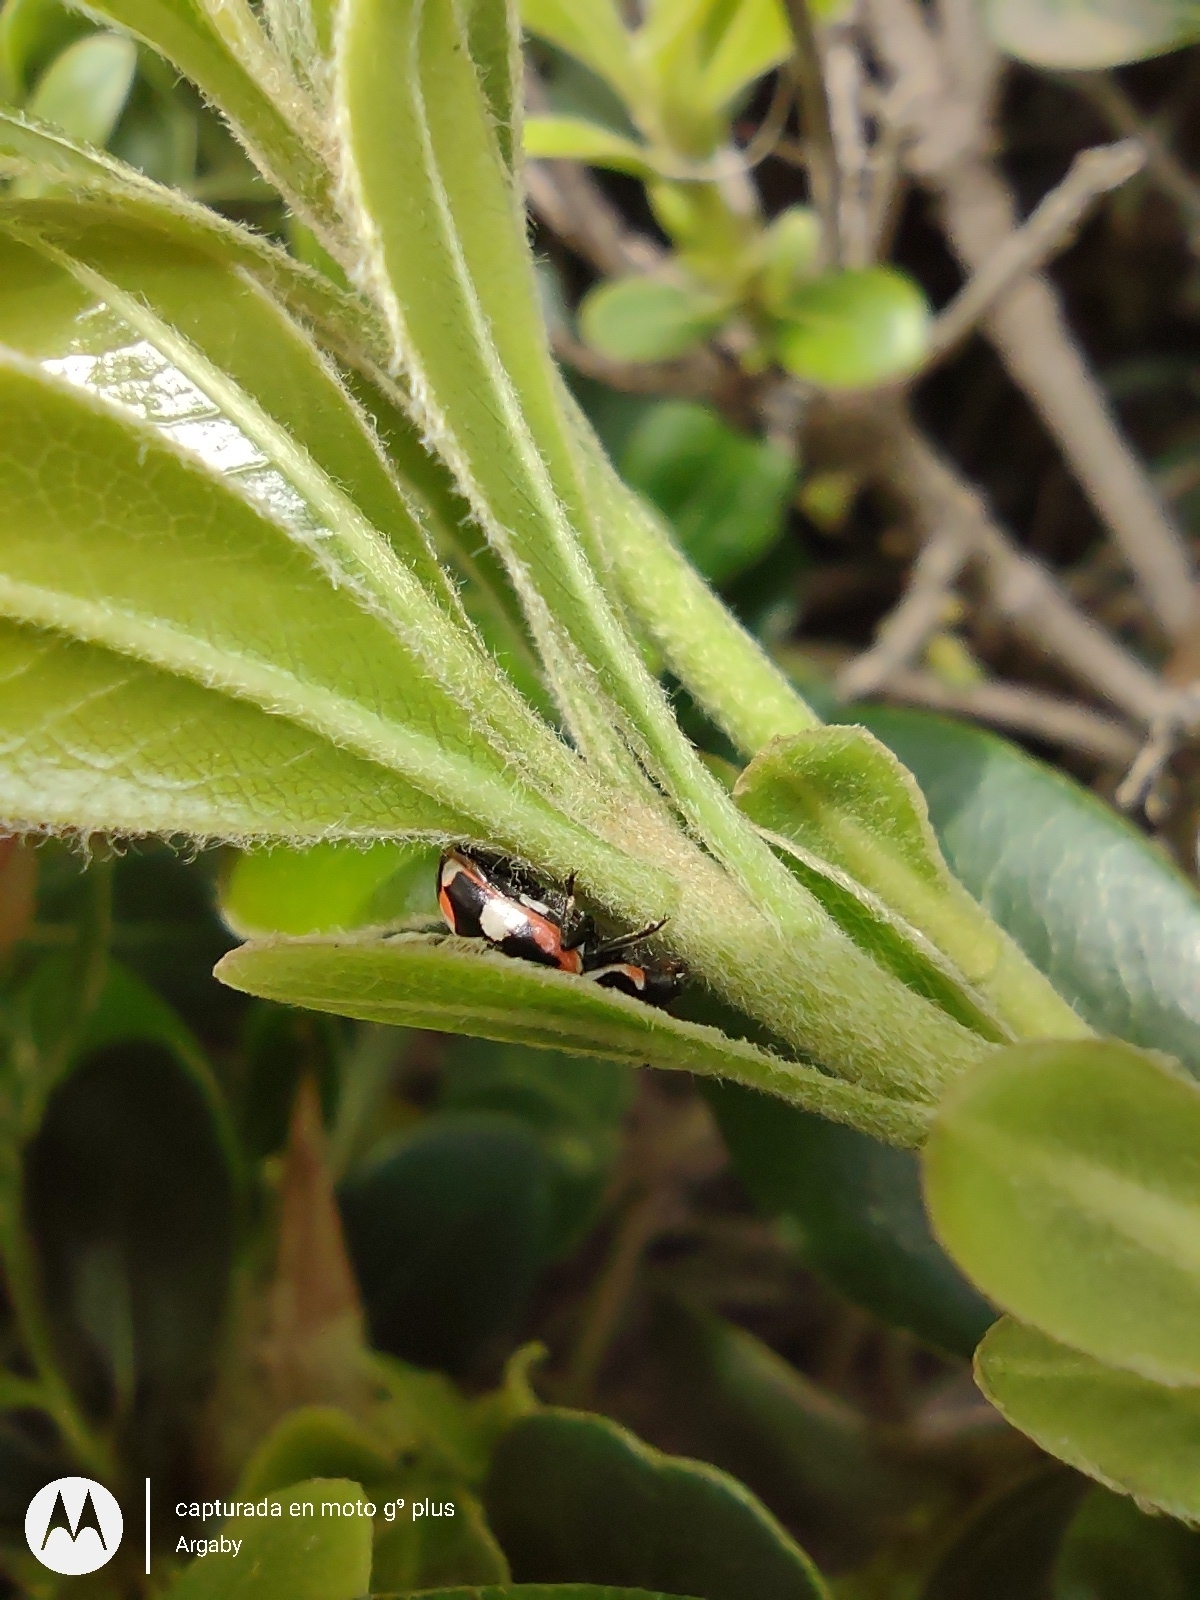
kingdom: Animalia
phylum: Arthropoda
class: Insecta
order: Coleoptera
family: Coccinellidae
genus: Eriopis
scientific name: Eriopis connexa
